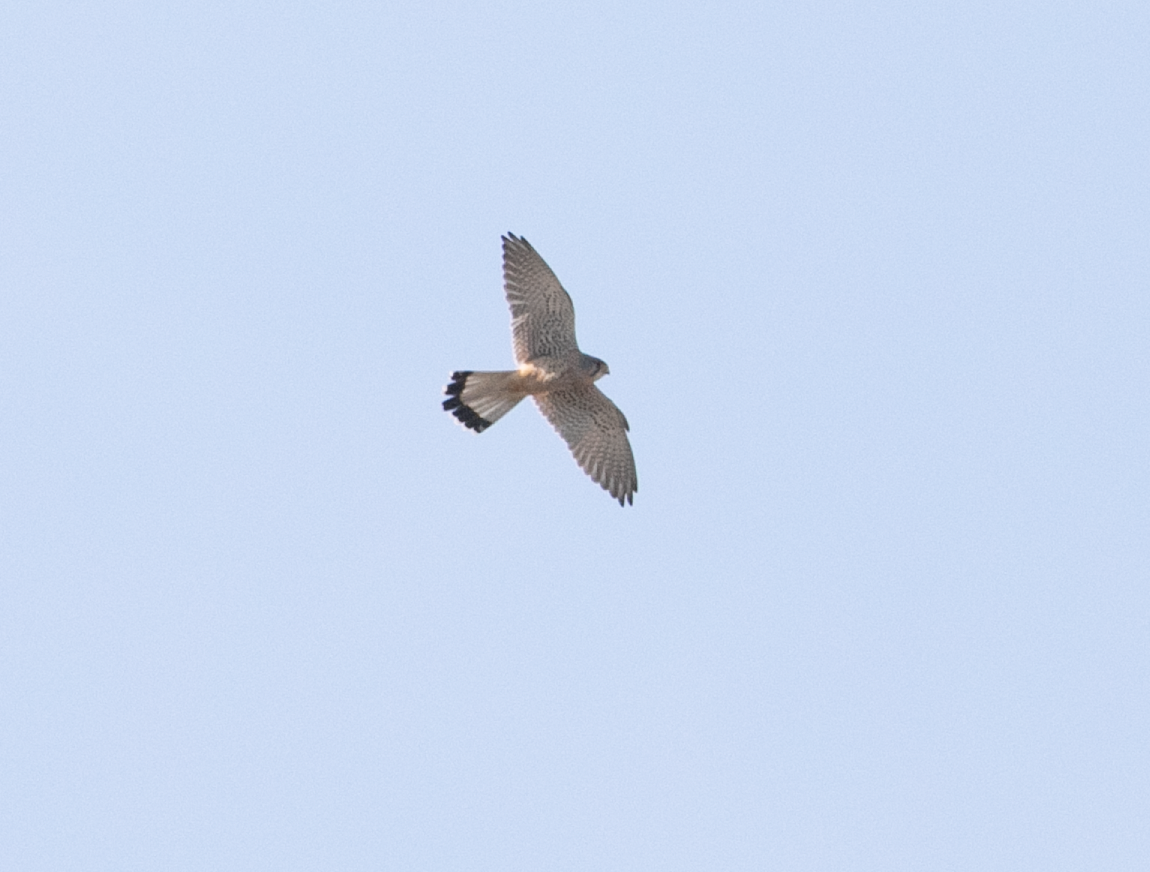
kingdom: Animalia
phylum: Chordata
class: Aves
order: Falconiformes
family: Falconidae
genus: Falco
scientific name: Falco tinnunculus
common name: Common kestrel
